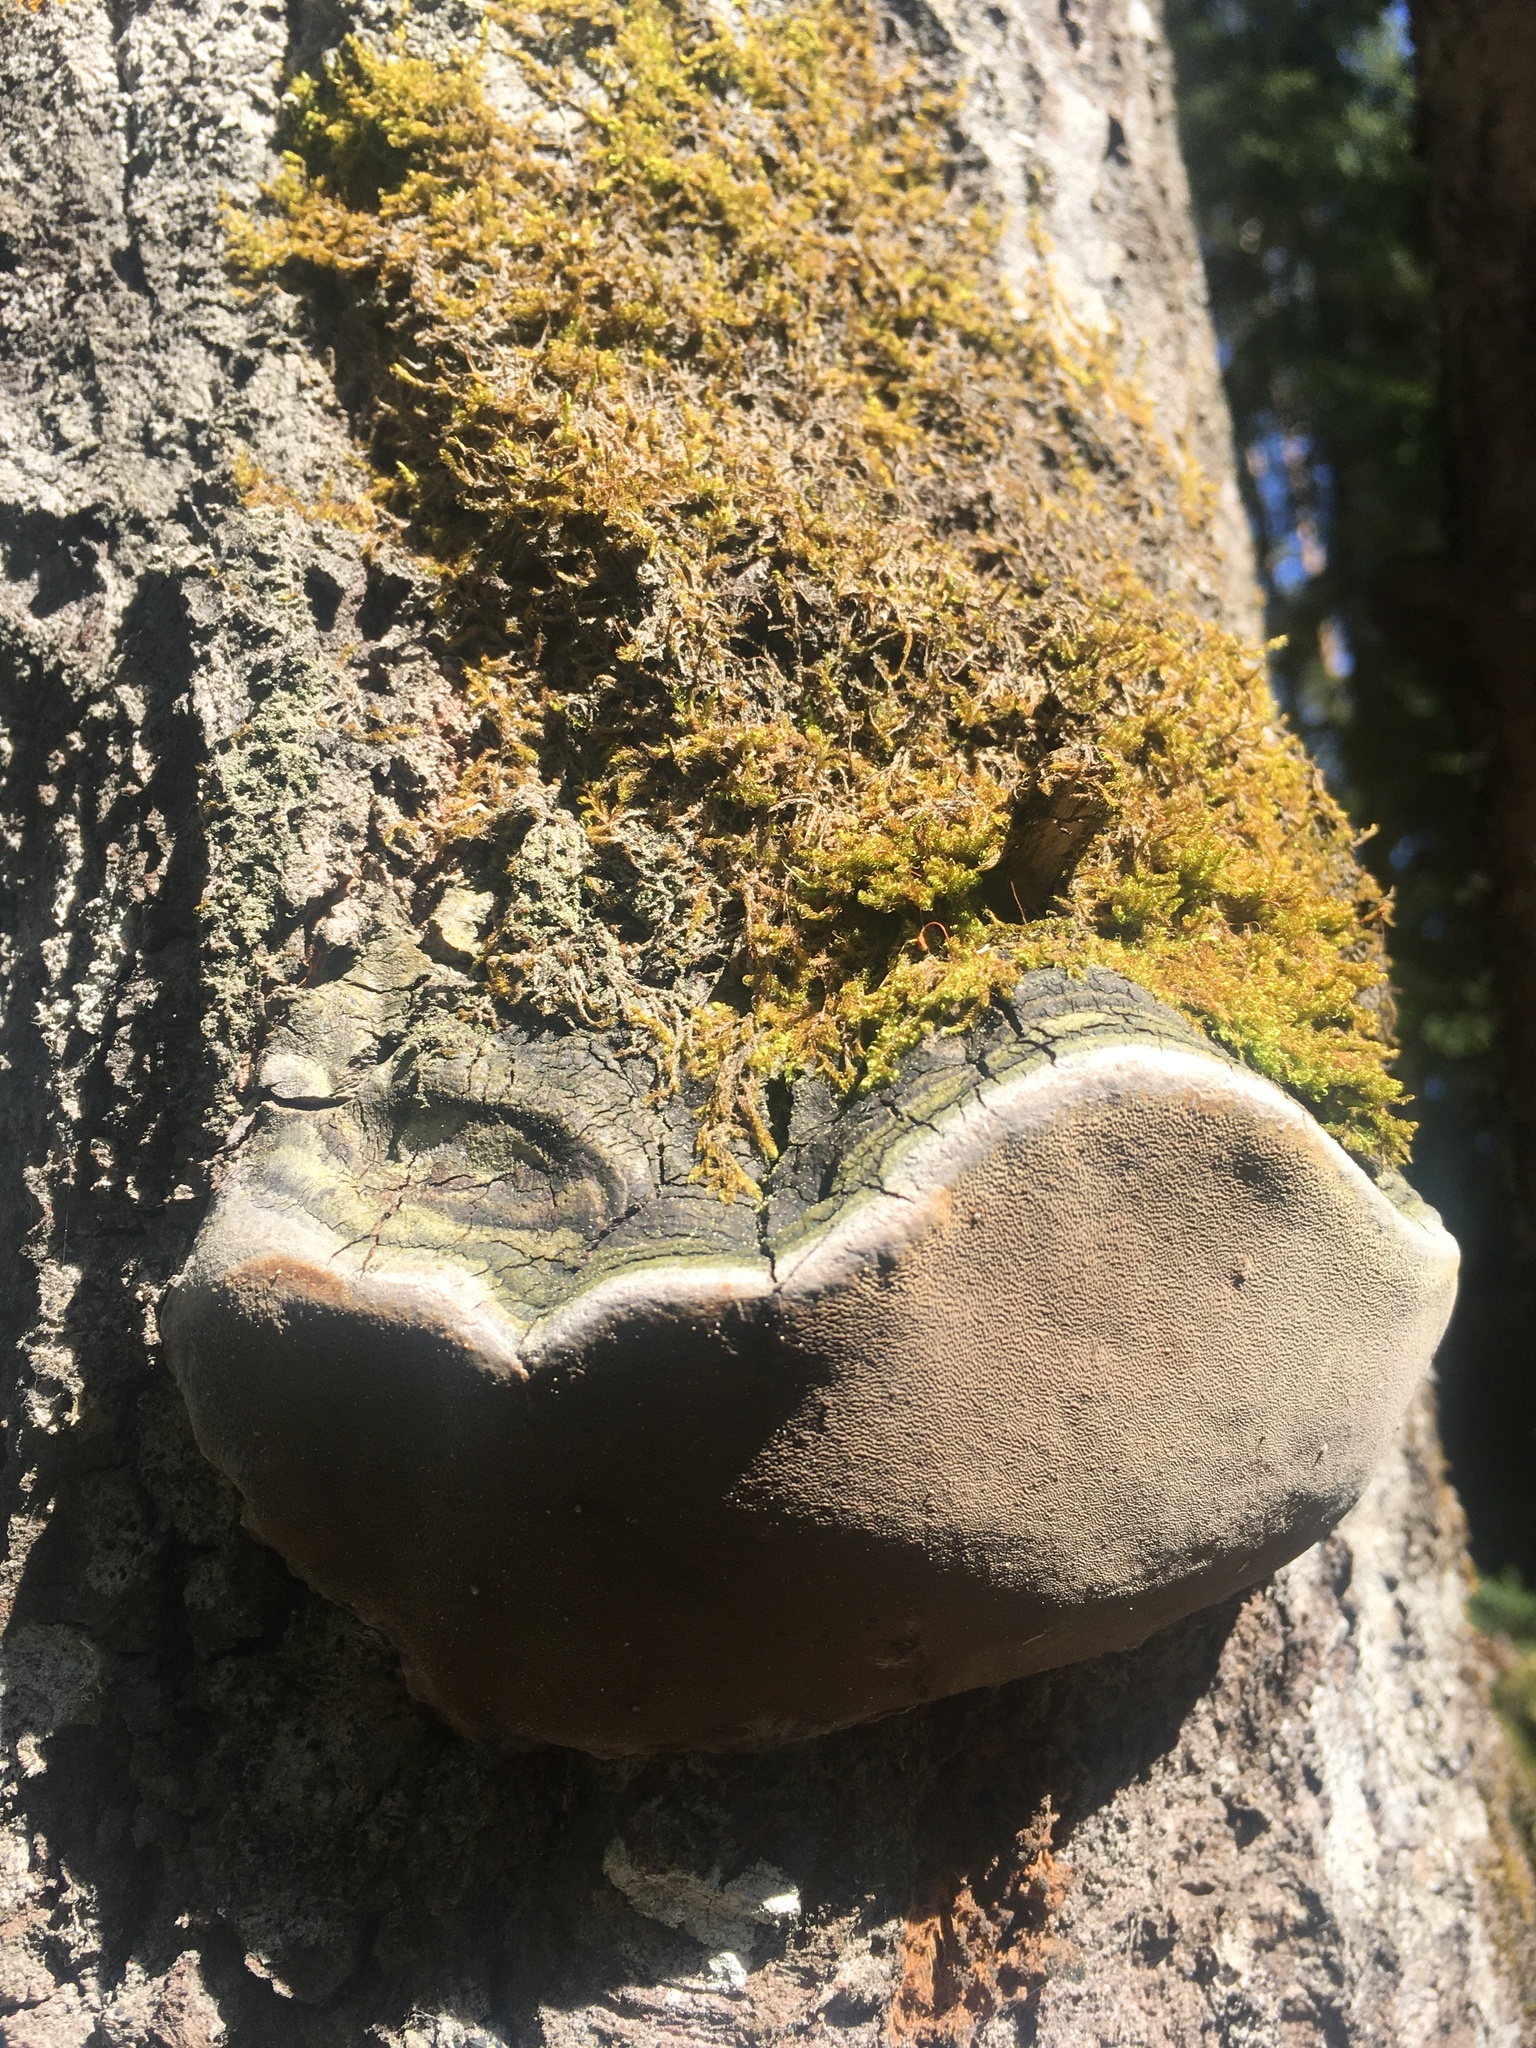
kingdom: Fungi
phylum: Basidiomycota
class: Agaricomycetes
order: Hymenochaetales
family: Hymenochaetaceae
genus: Phellinus
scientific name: Phellinus tremulae
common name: Aspen bracket
